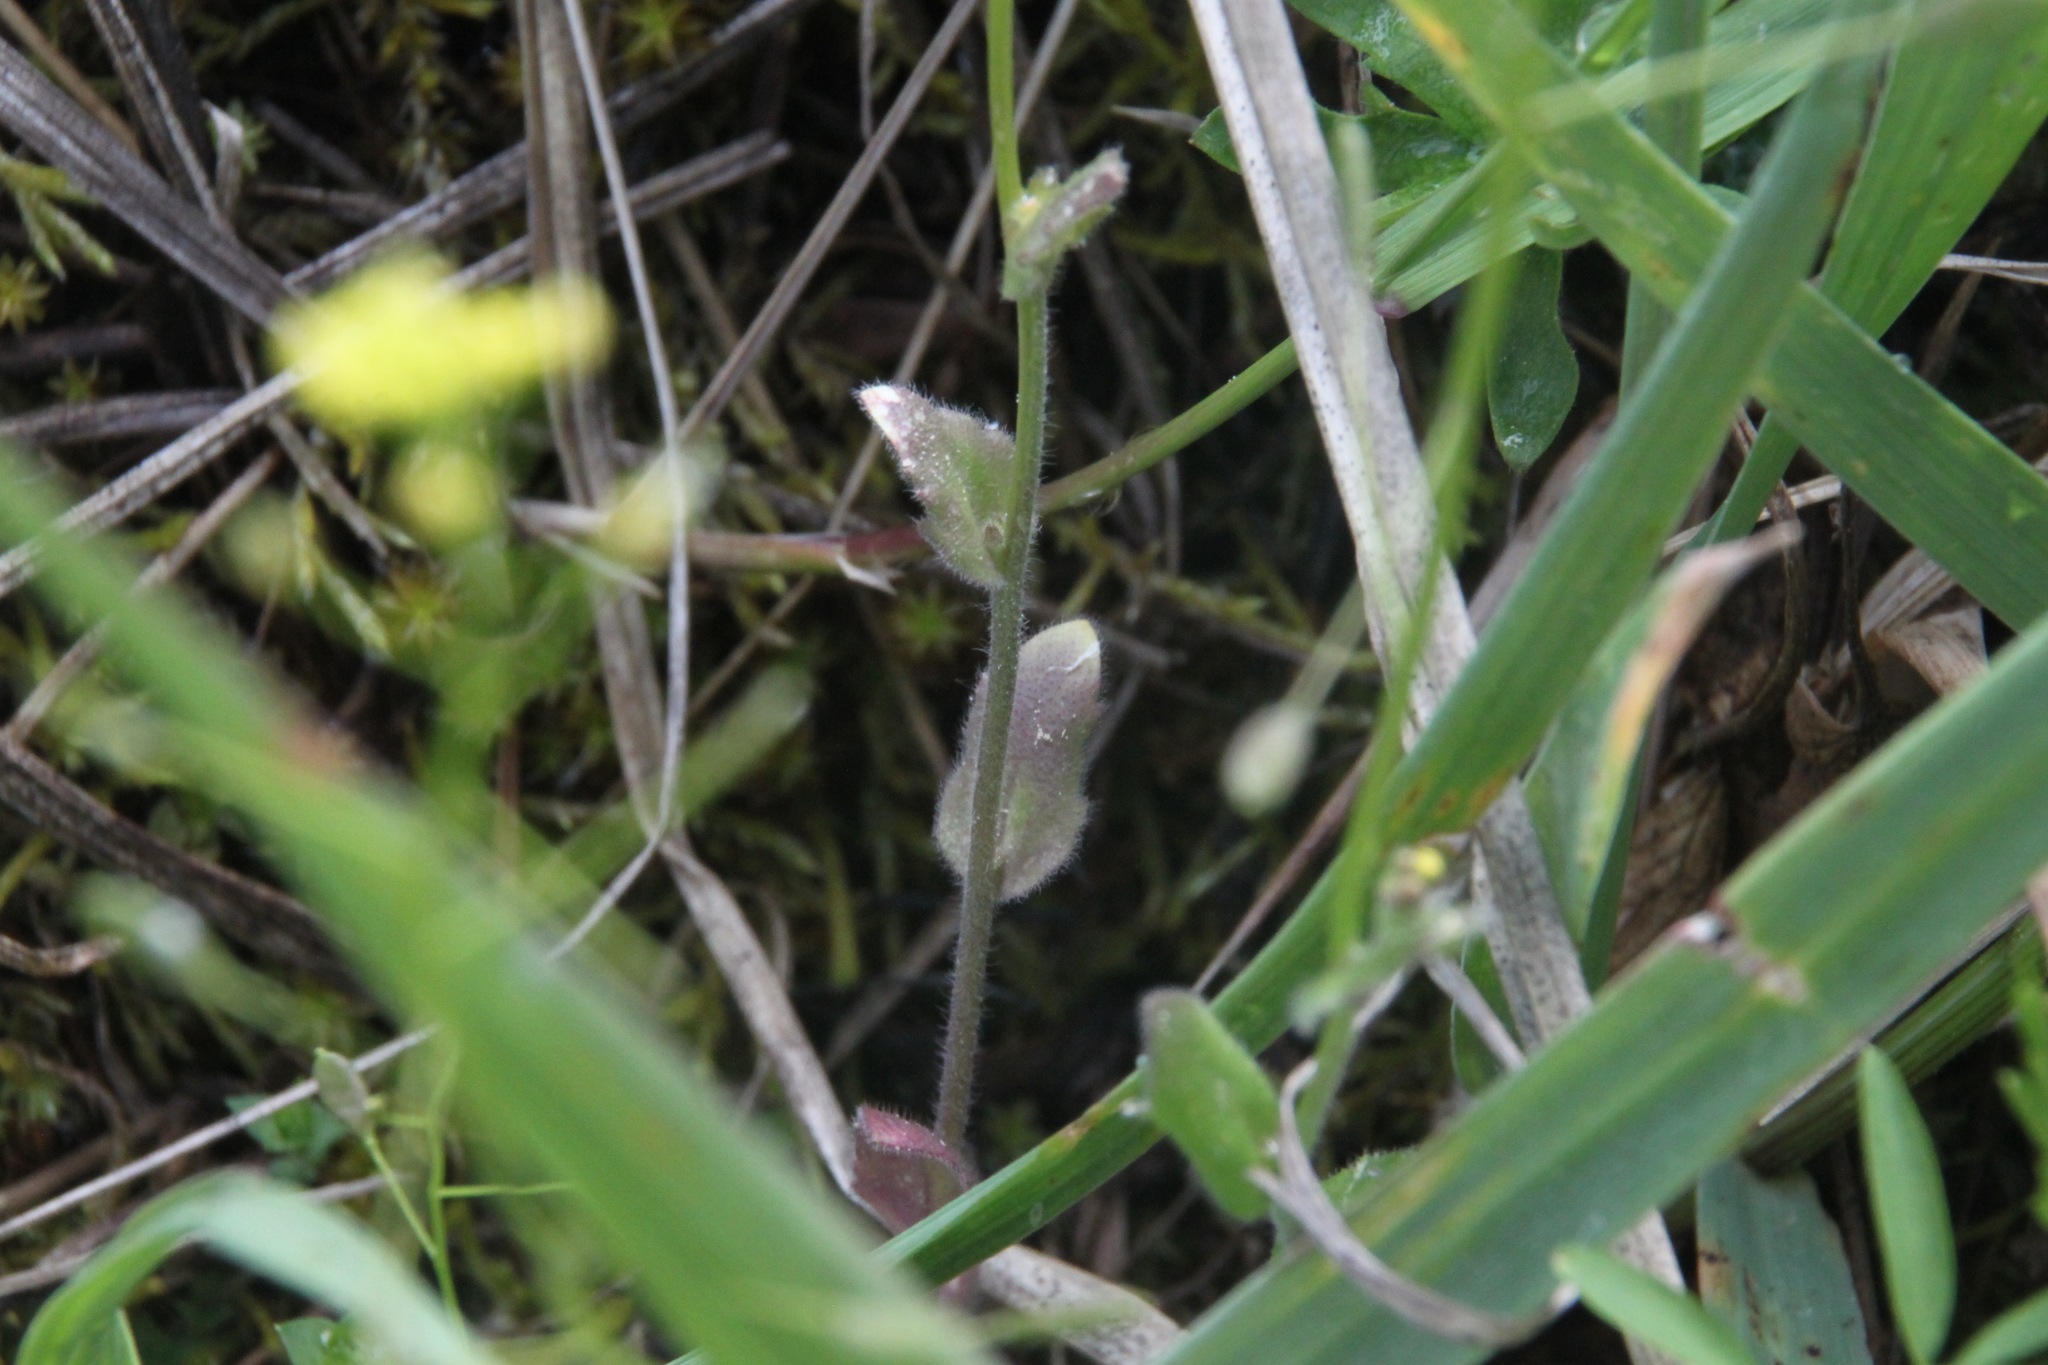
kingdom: Plantae
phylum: Tracheophyta
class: Magnoliopsida
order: Brassicales
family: Brassicaceae
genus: Draba
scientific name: Draba nemorosa
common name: Wood whitlow-grass
